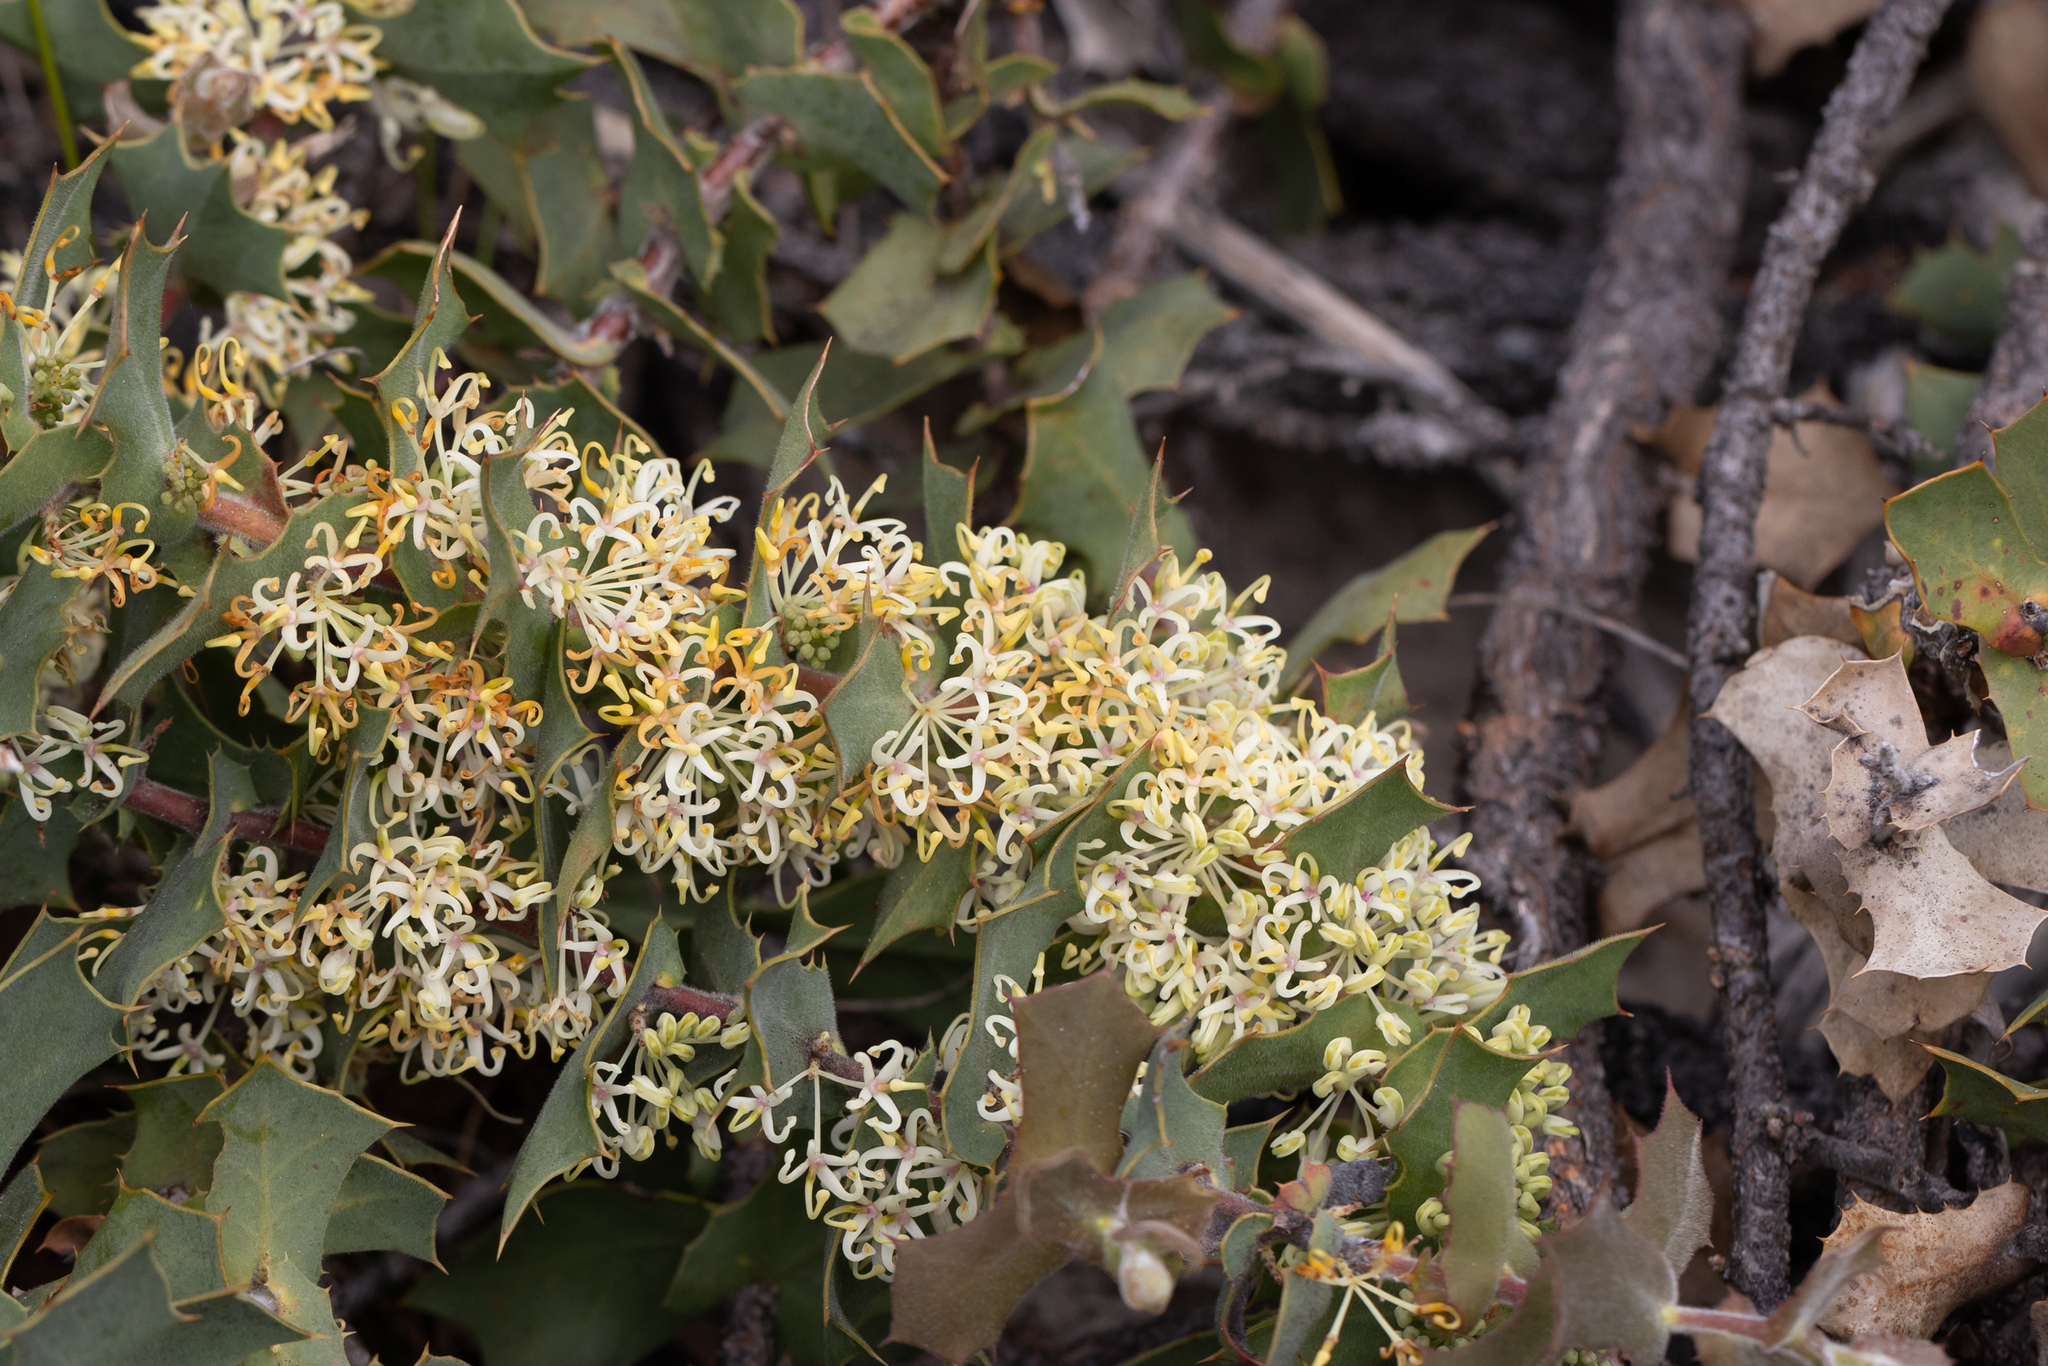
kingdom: Plantae
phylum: Tracheophyta
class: Magnoliopsida
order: Proteales
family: Proteaceae
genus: Hakea
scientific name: Hakea prostrata
